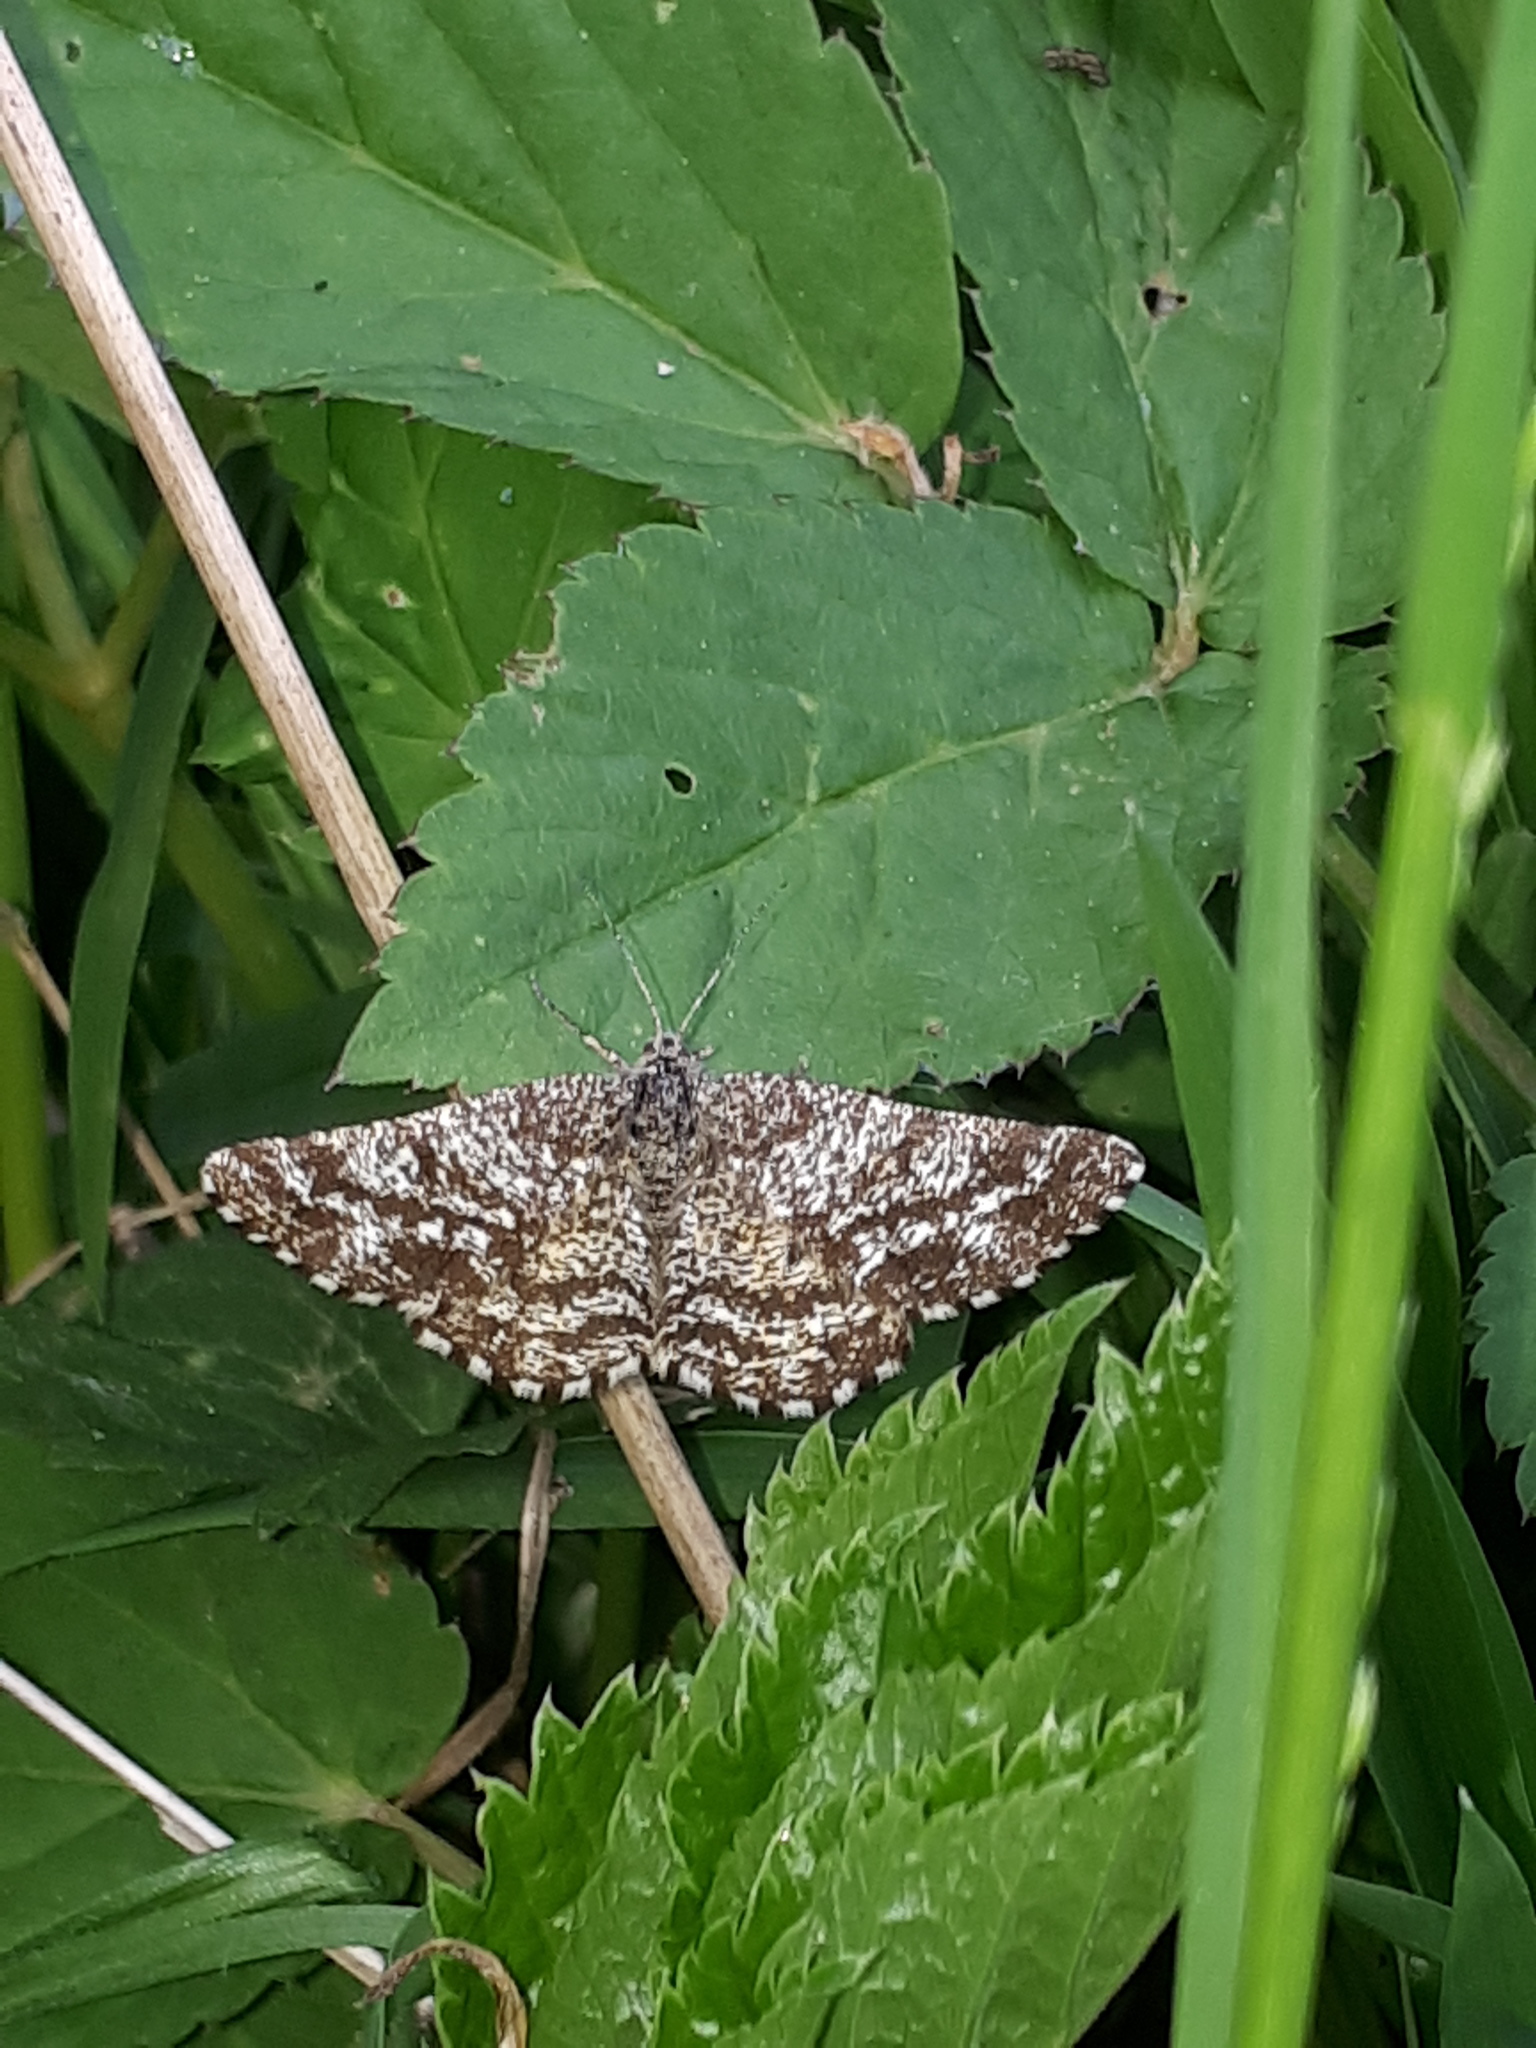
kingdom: Animalia
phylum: Arthropoda
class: Insecta
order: Lepidoptera
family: Geometridae
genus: Ematurga
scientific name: Ematurga atomaria
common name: Common heath
